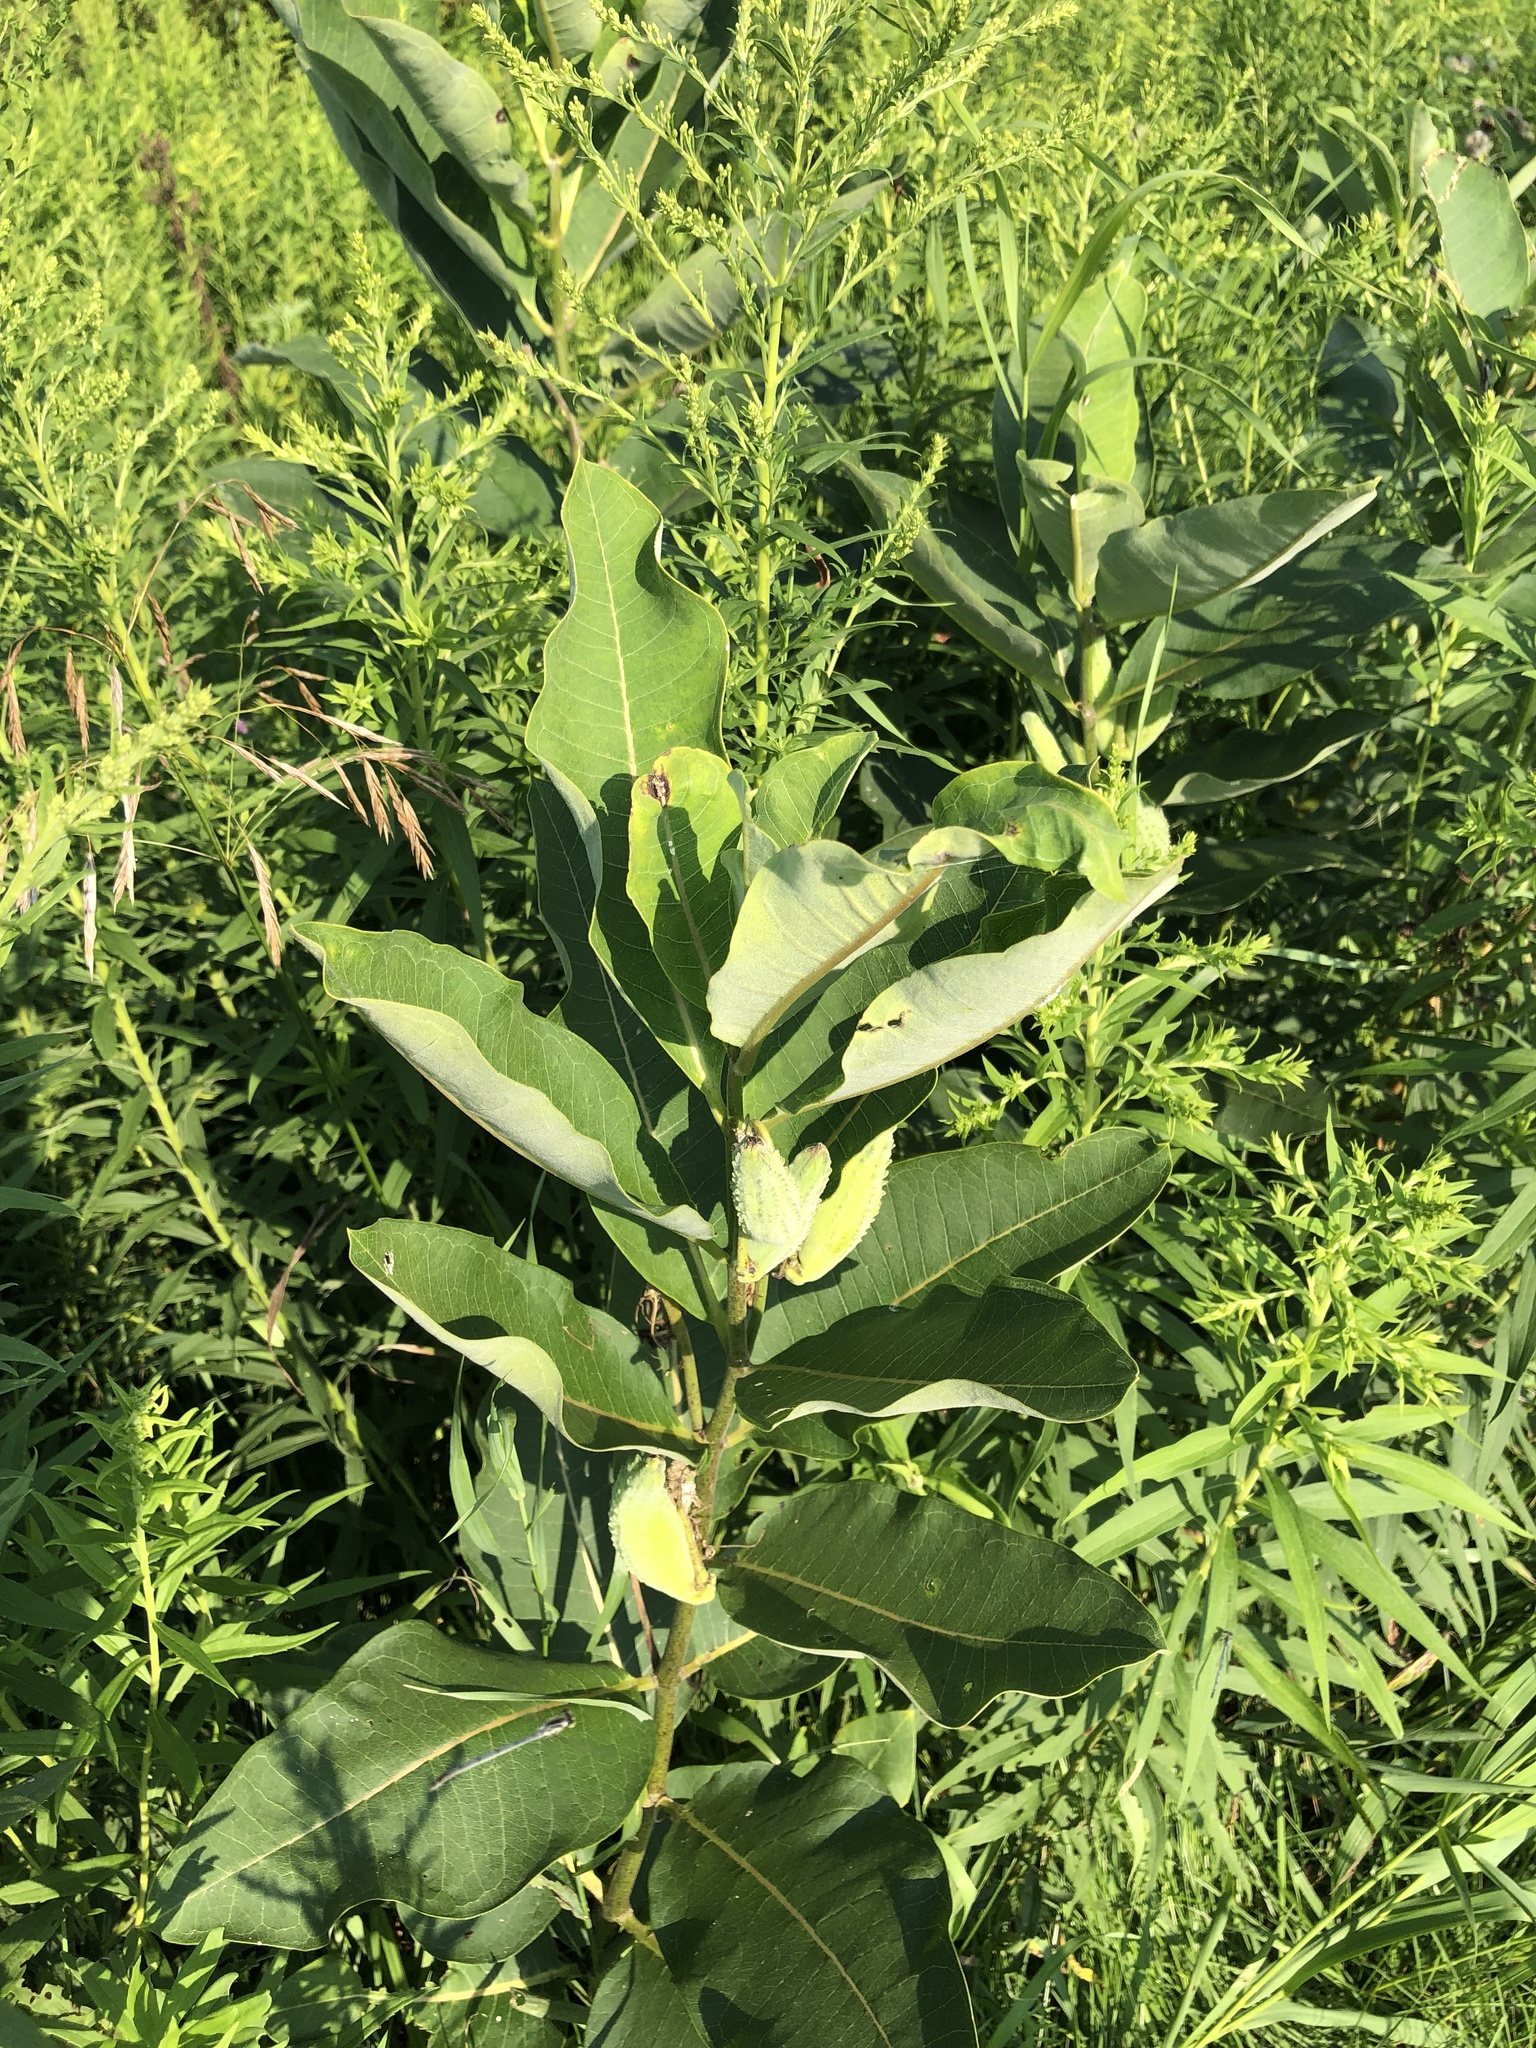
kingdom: Plantae
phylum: Tracheophyta
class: Magnoliopsida
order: Gentianales
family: Apocynaceae
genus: Asclepias
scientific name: Asclepias syriaca
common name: Common milkweed
